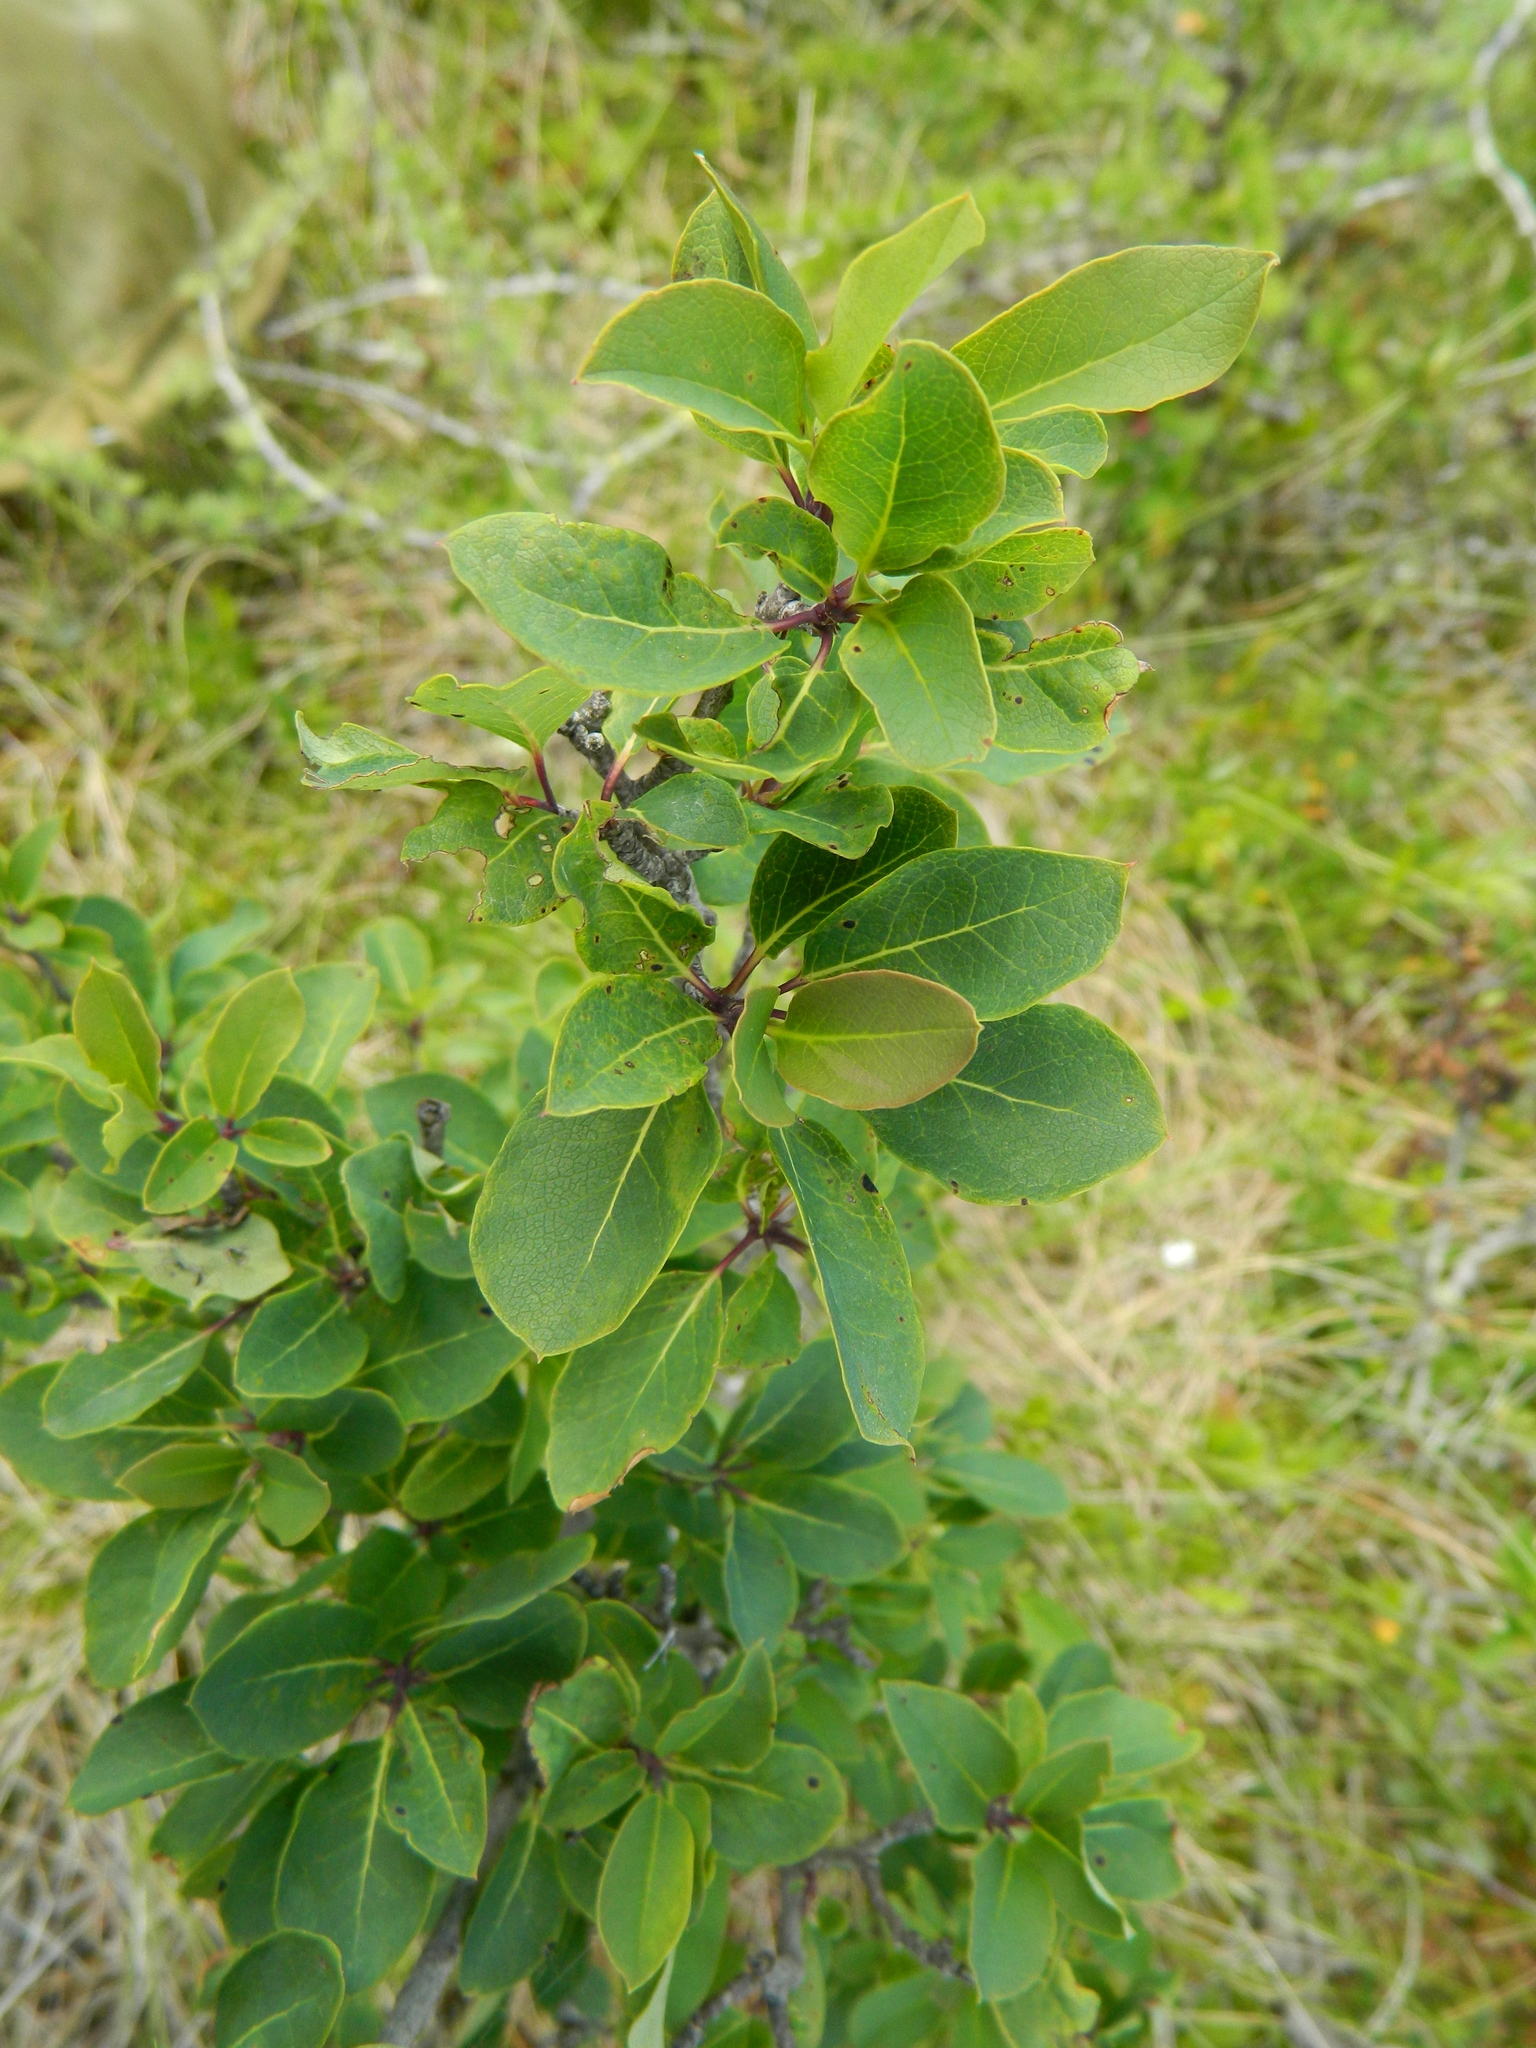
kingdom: Plantae
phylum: Tracheophyta
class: Magnoliopsida
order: Aquifoliales
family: Aquifoliaceae
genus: Ilex
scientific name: Ilex mucronata
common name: Catberry
